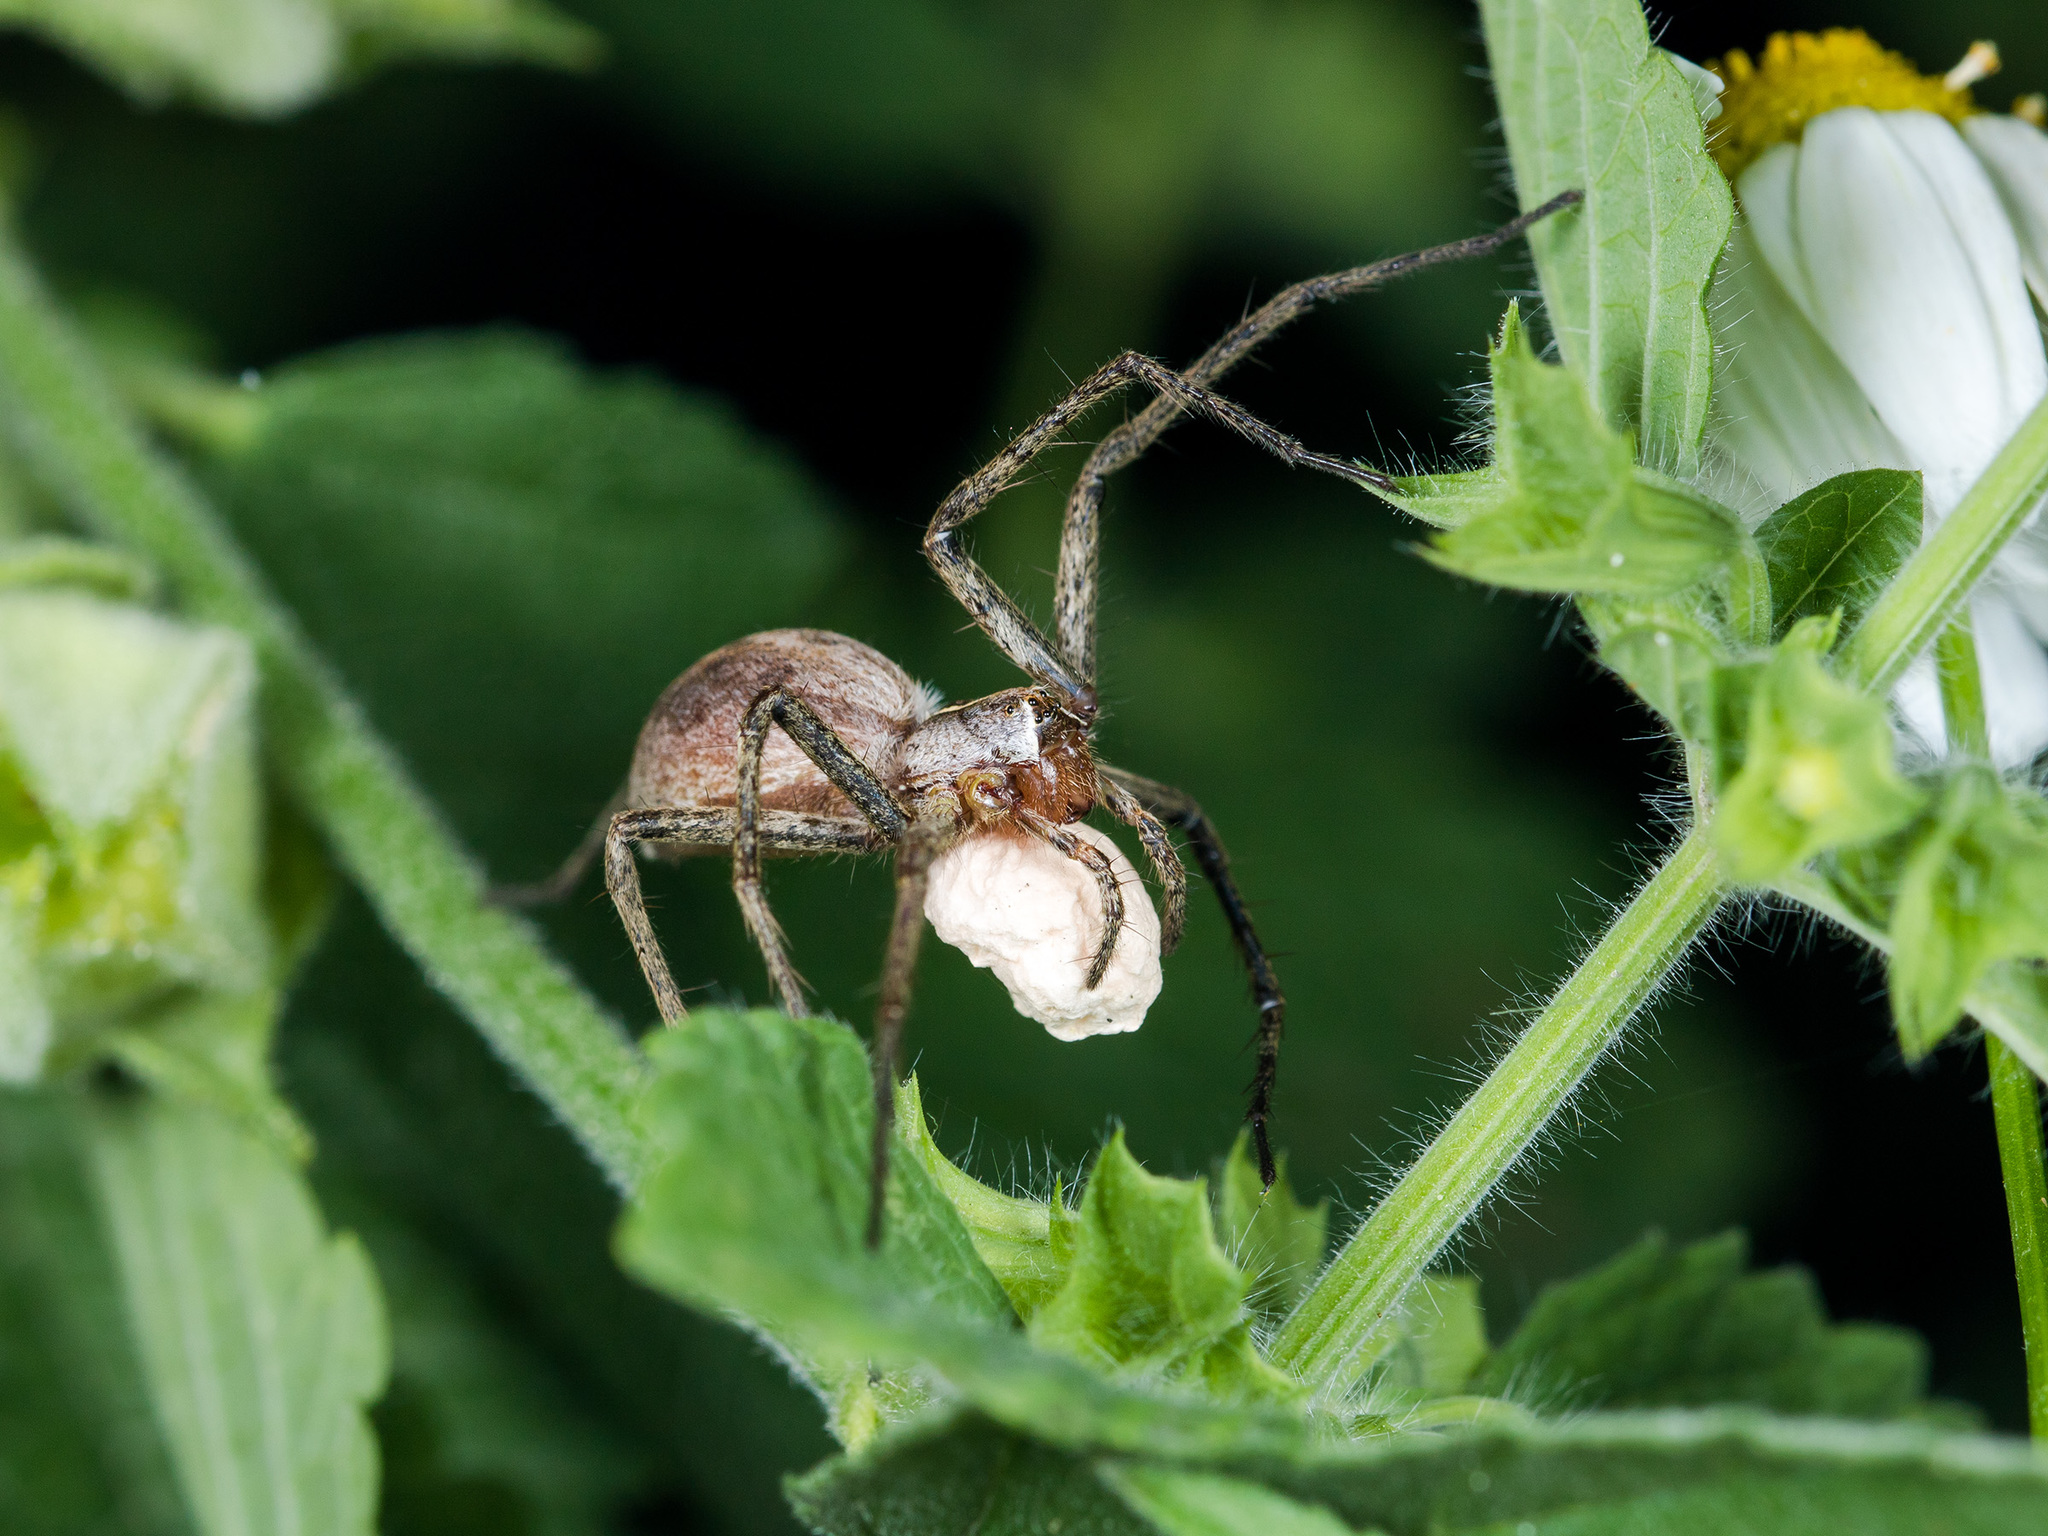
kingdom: Animalia
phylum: Arthropoda
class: Arachnida
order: Araneae
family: Pisauridae
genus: Pisaura
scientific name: Pisaura mirabilis
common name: Tent spider
